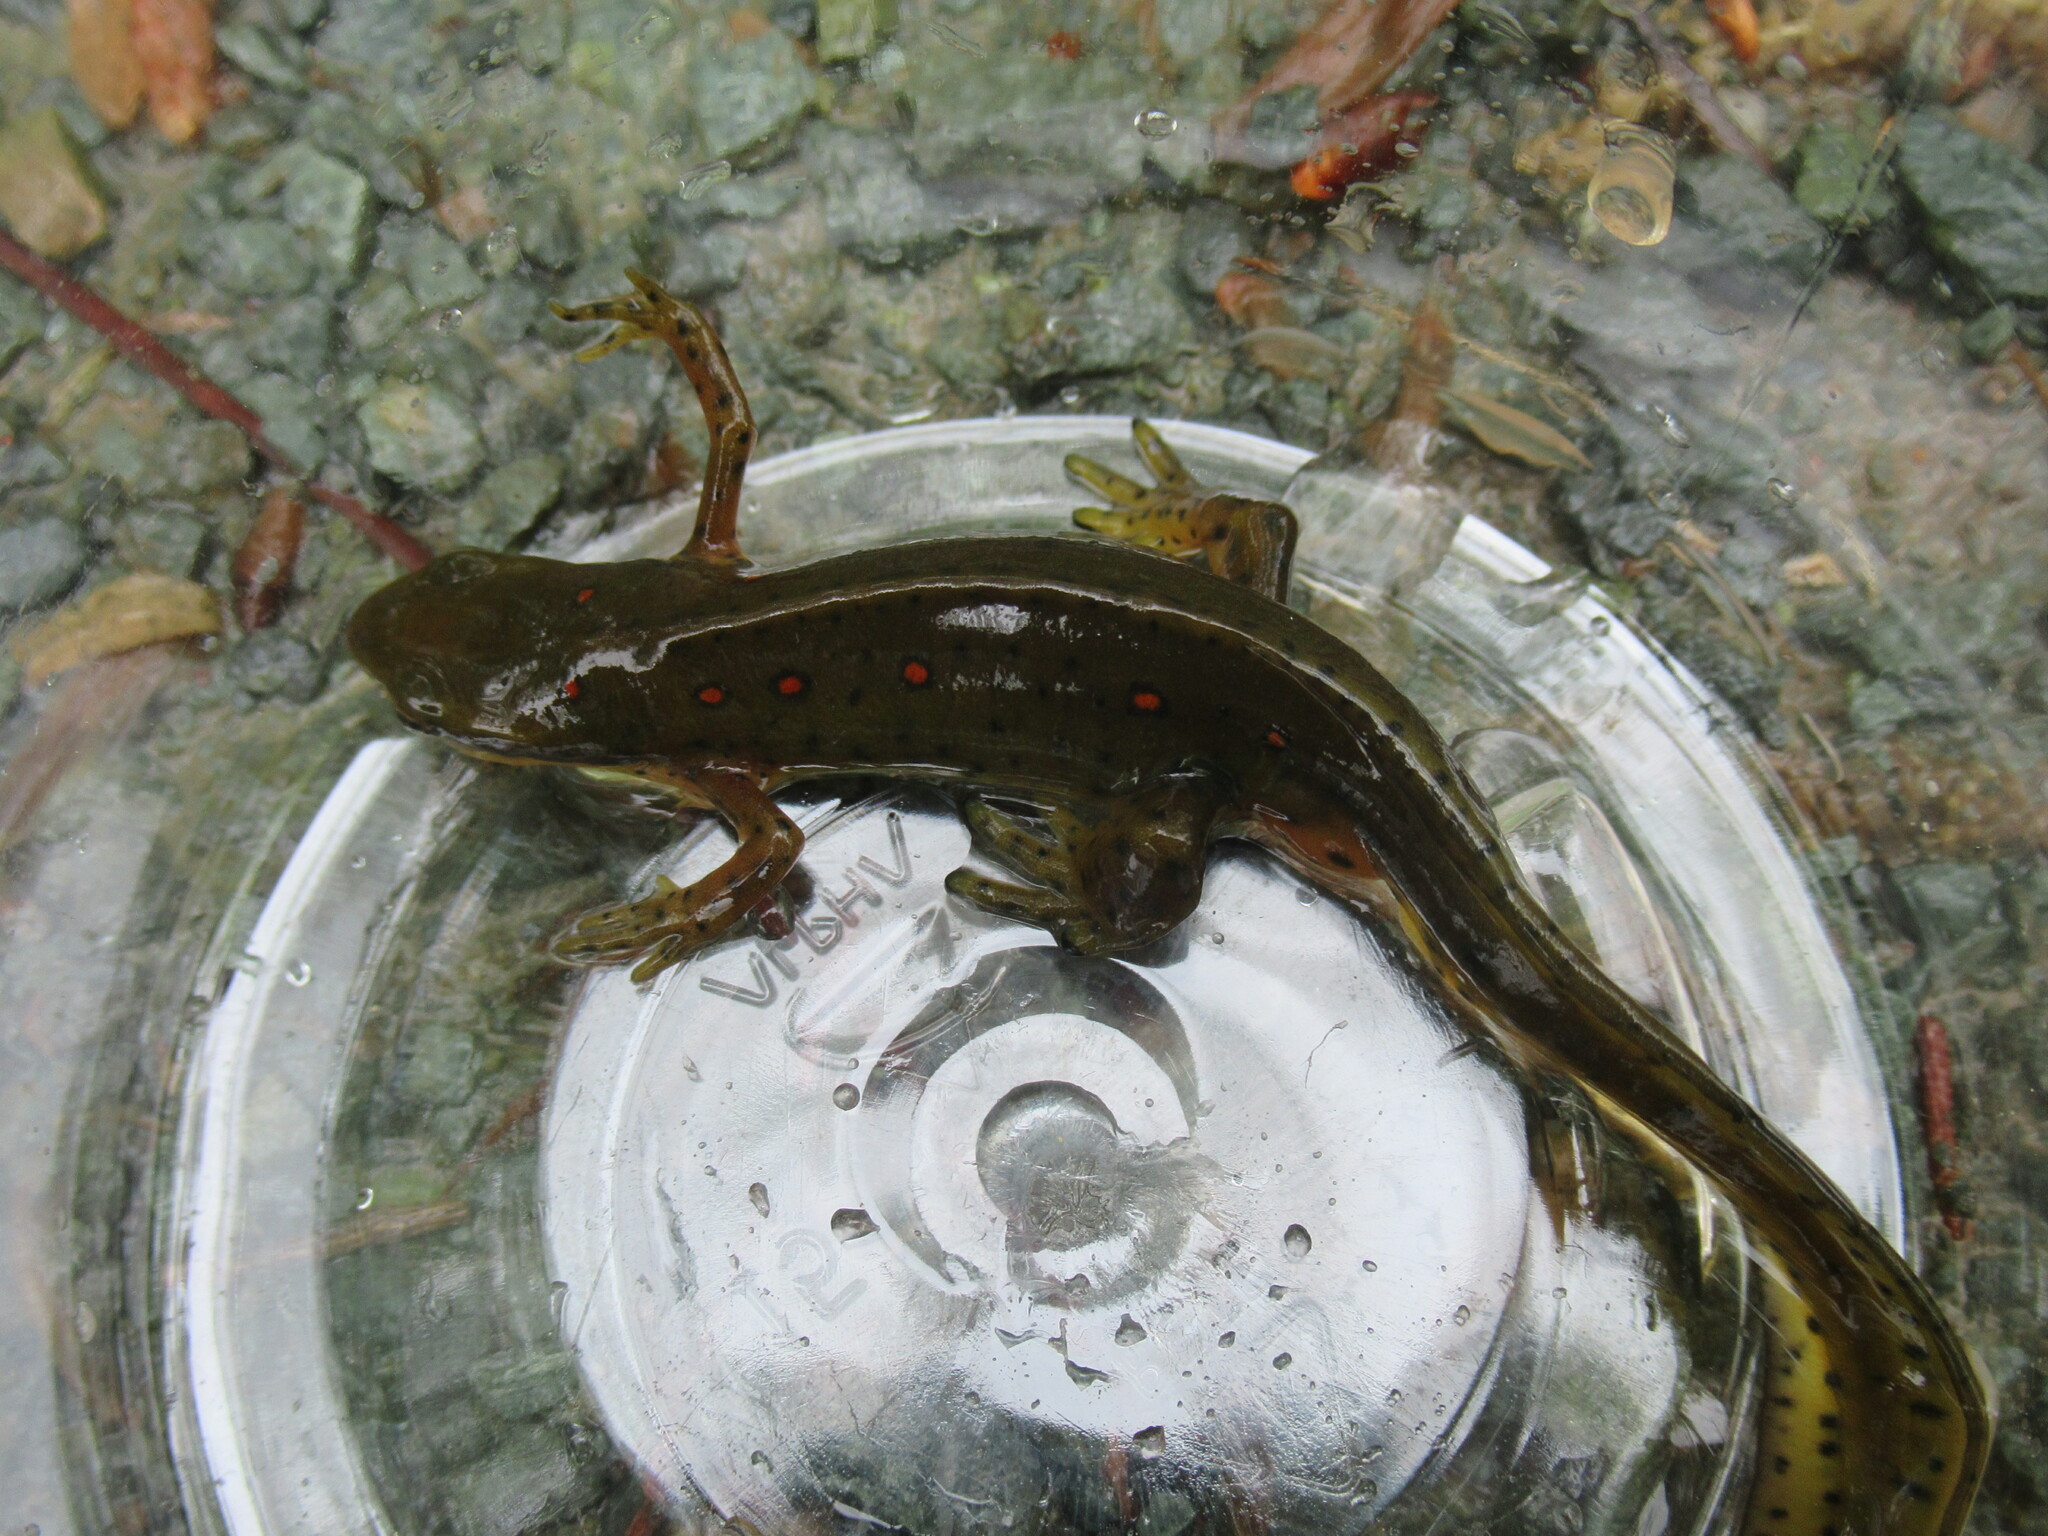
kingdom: Animalia
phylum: Chordata
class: Amphibia
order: Caudata
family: Salamandridae
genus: Notophthalmus
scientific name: Notophthalmus viridescens
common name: Eastern newt
